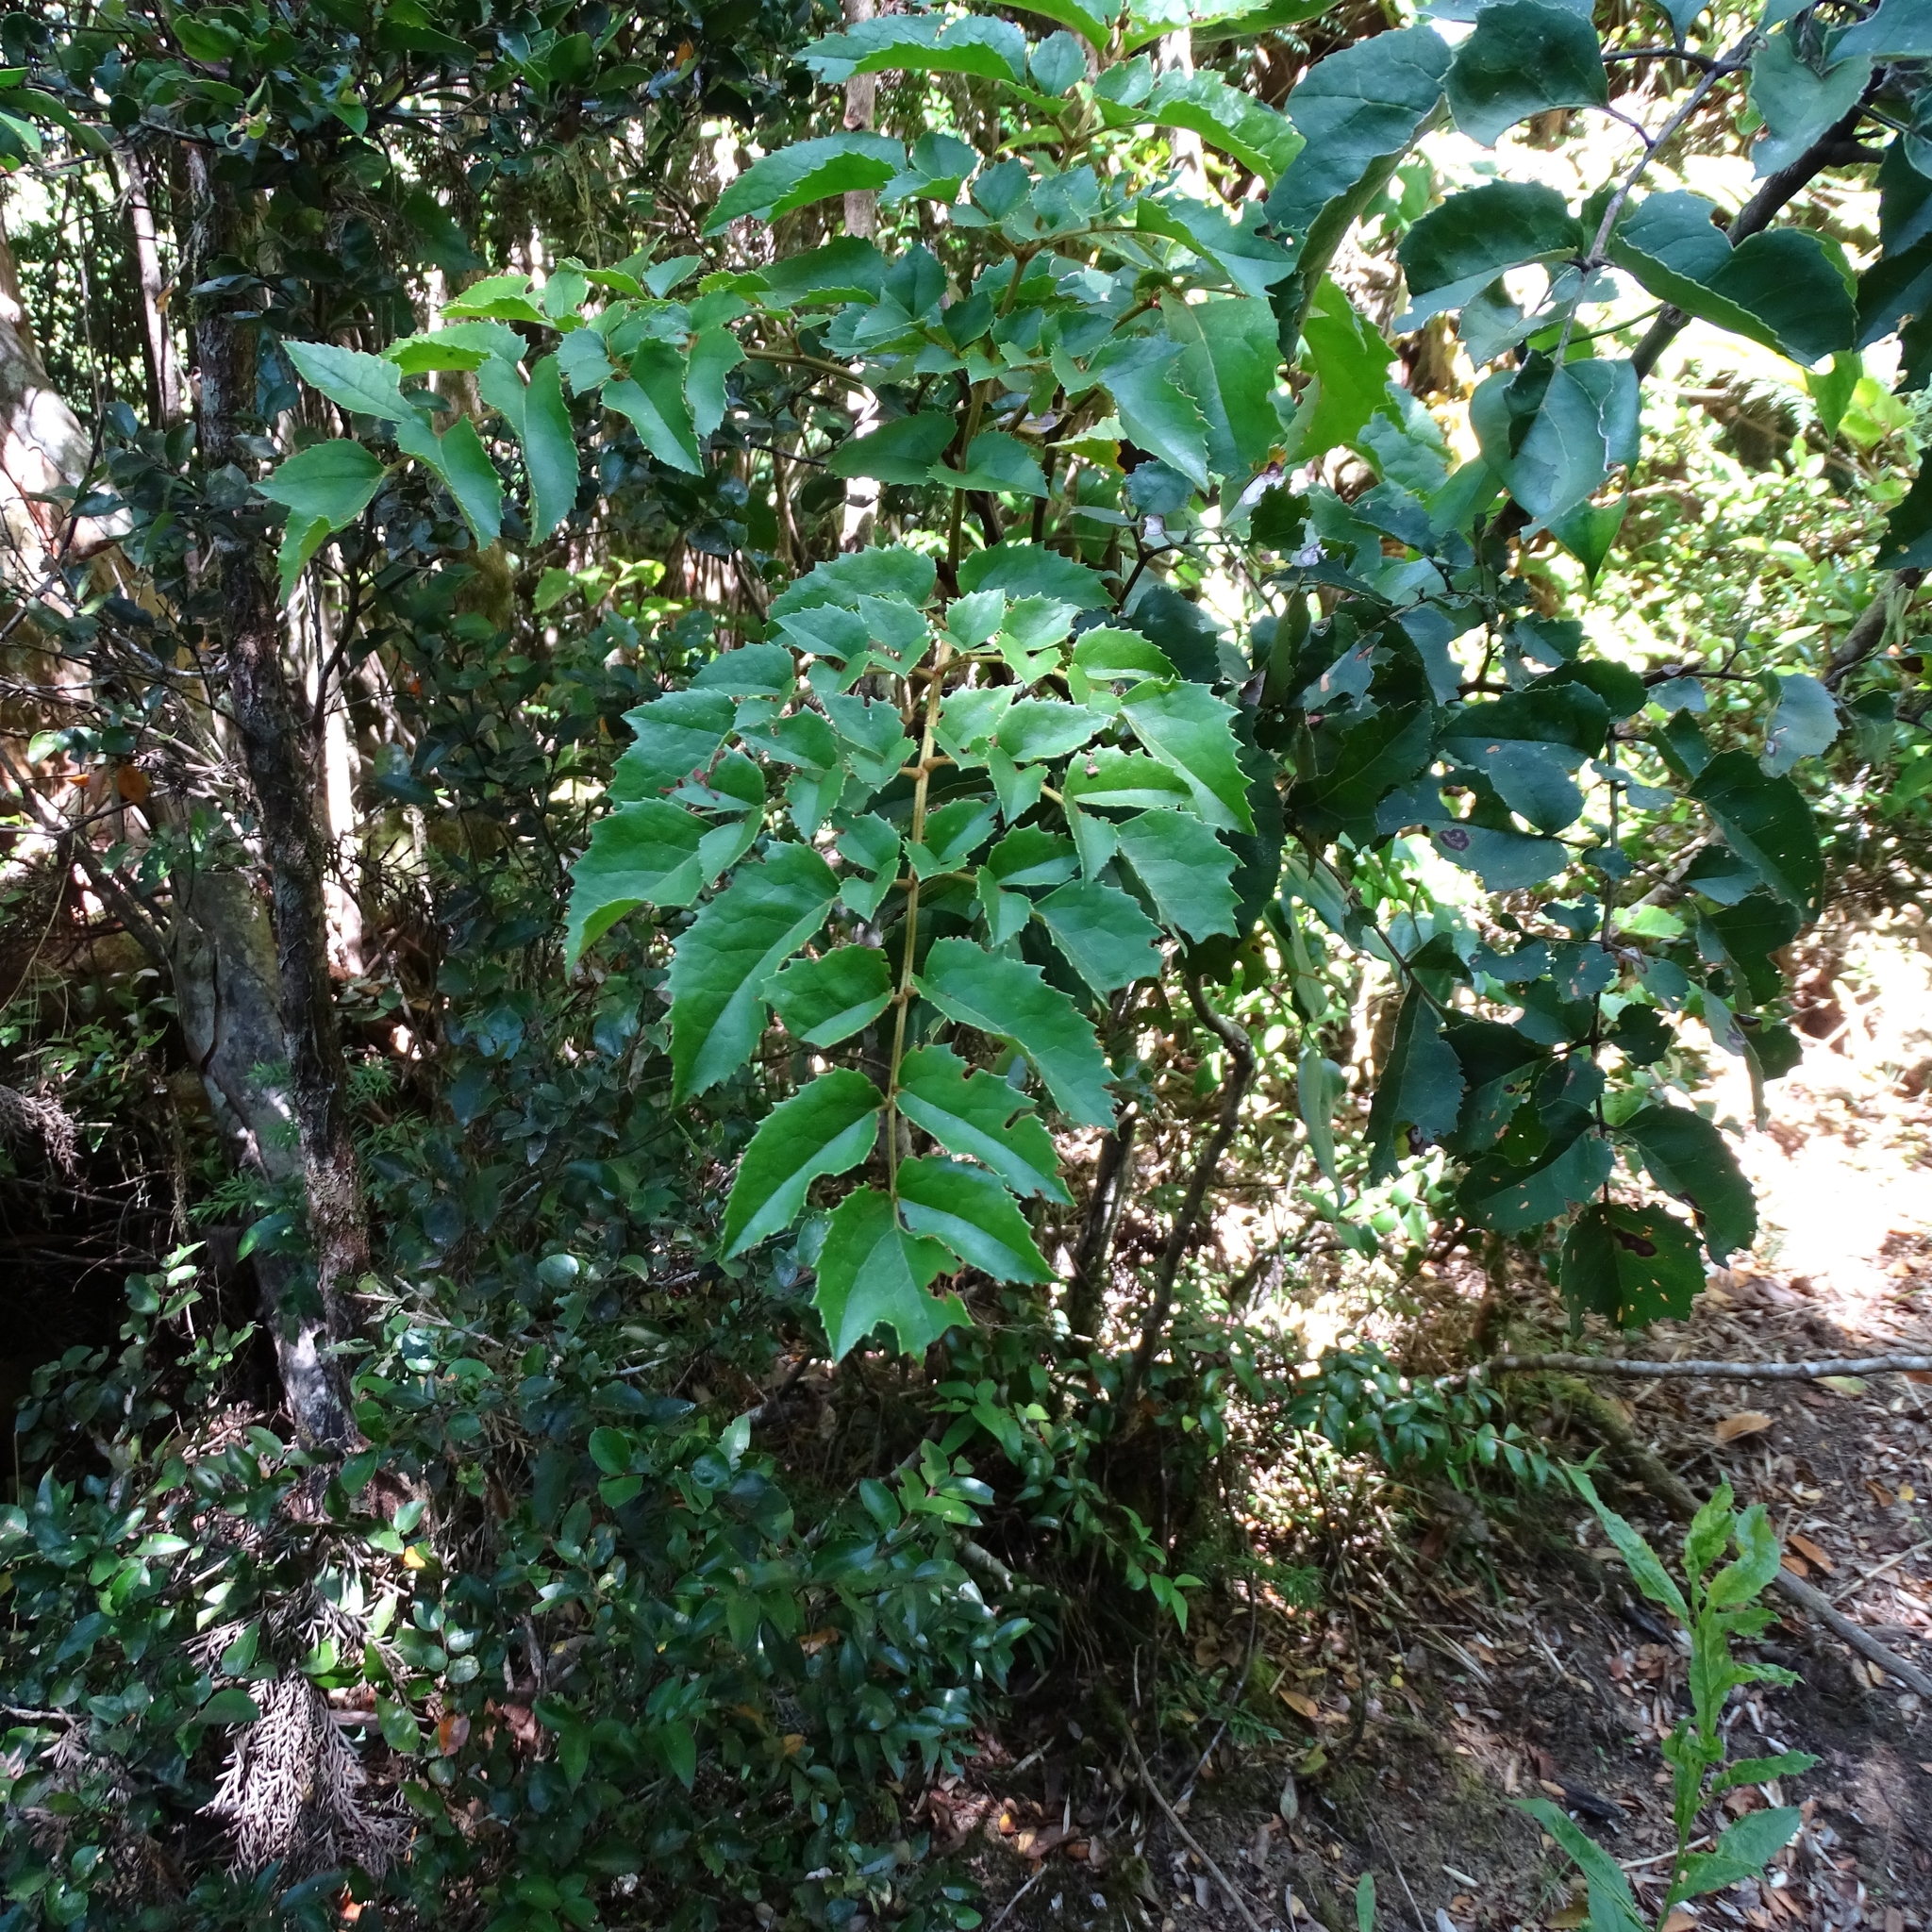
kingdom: Plantae
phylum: Tracheophyta
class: Magnoliopsida
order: Proteales
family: Proteaceae
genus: Gevuina
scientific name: Gevuina avellana
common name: Chilean hazel
